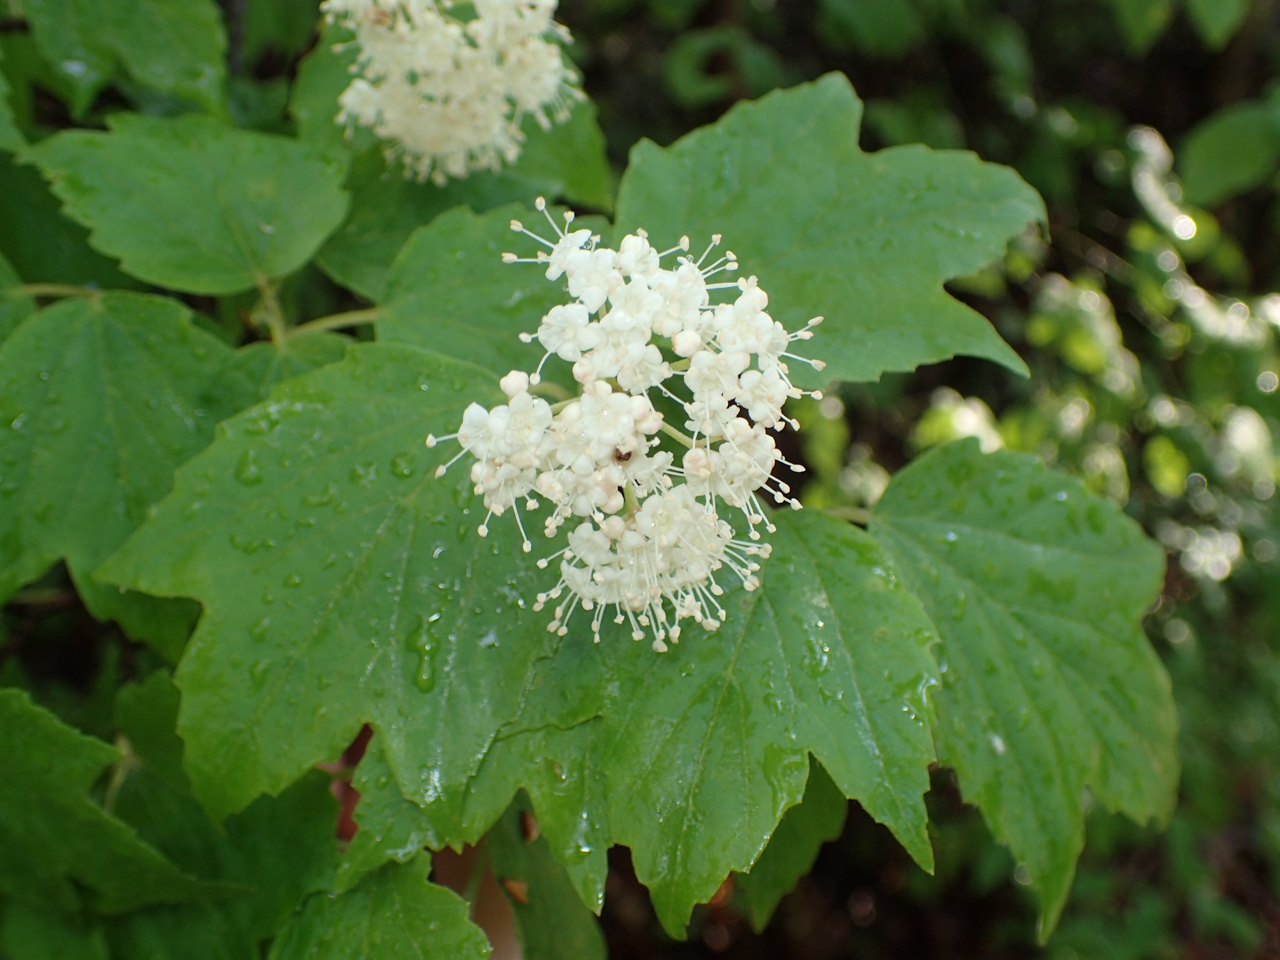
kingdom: Plantae
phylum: Tracheophyta
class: Magnoliopsida
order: Dipsacales
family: Viburnaceae
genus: Viburnum
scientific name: Viburnum acerifolium
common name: Dockmackie
